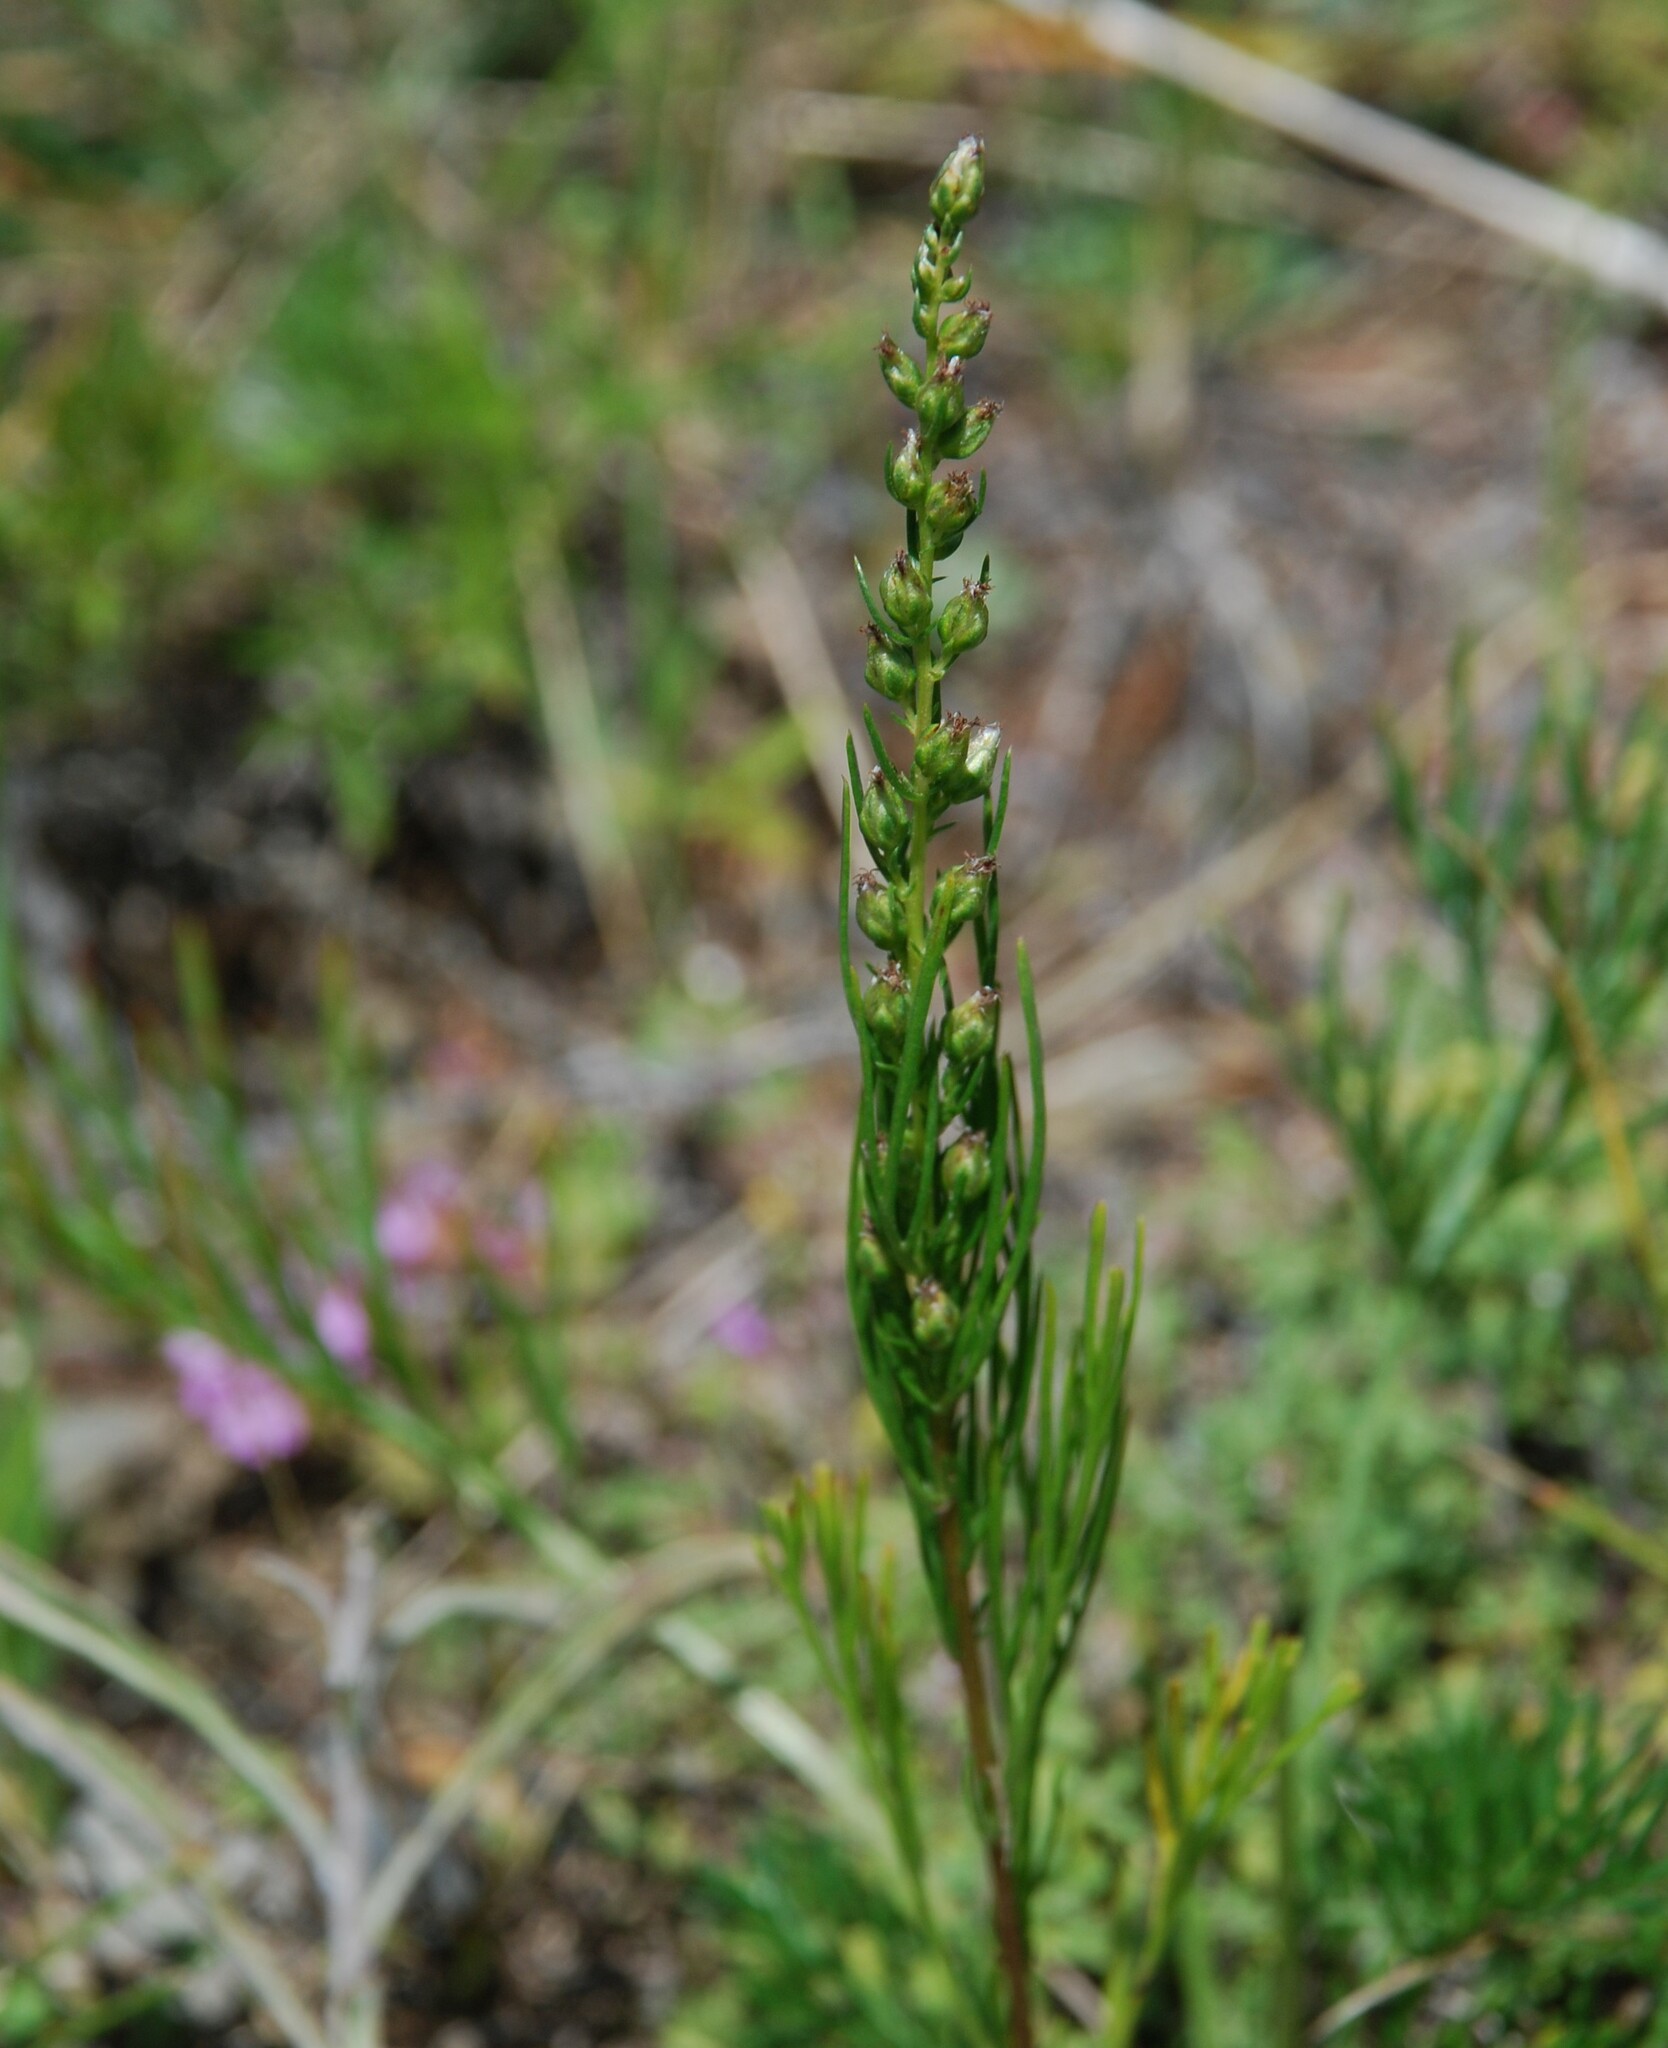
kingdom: Plantae
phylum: Tracheophyta
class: Magnoliopsida
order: Asterales
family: Asteraceae
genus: Artemisia
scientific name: Artemisia pubescens
